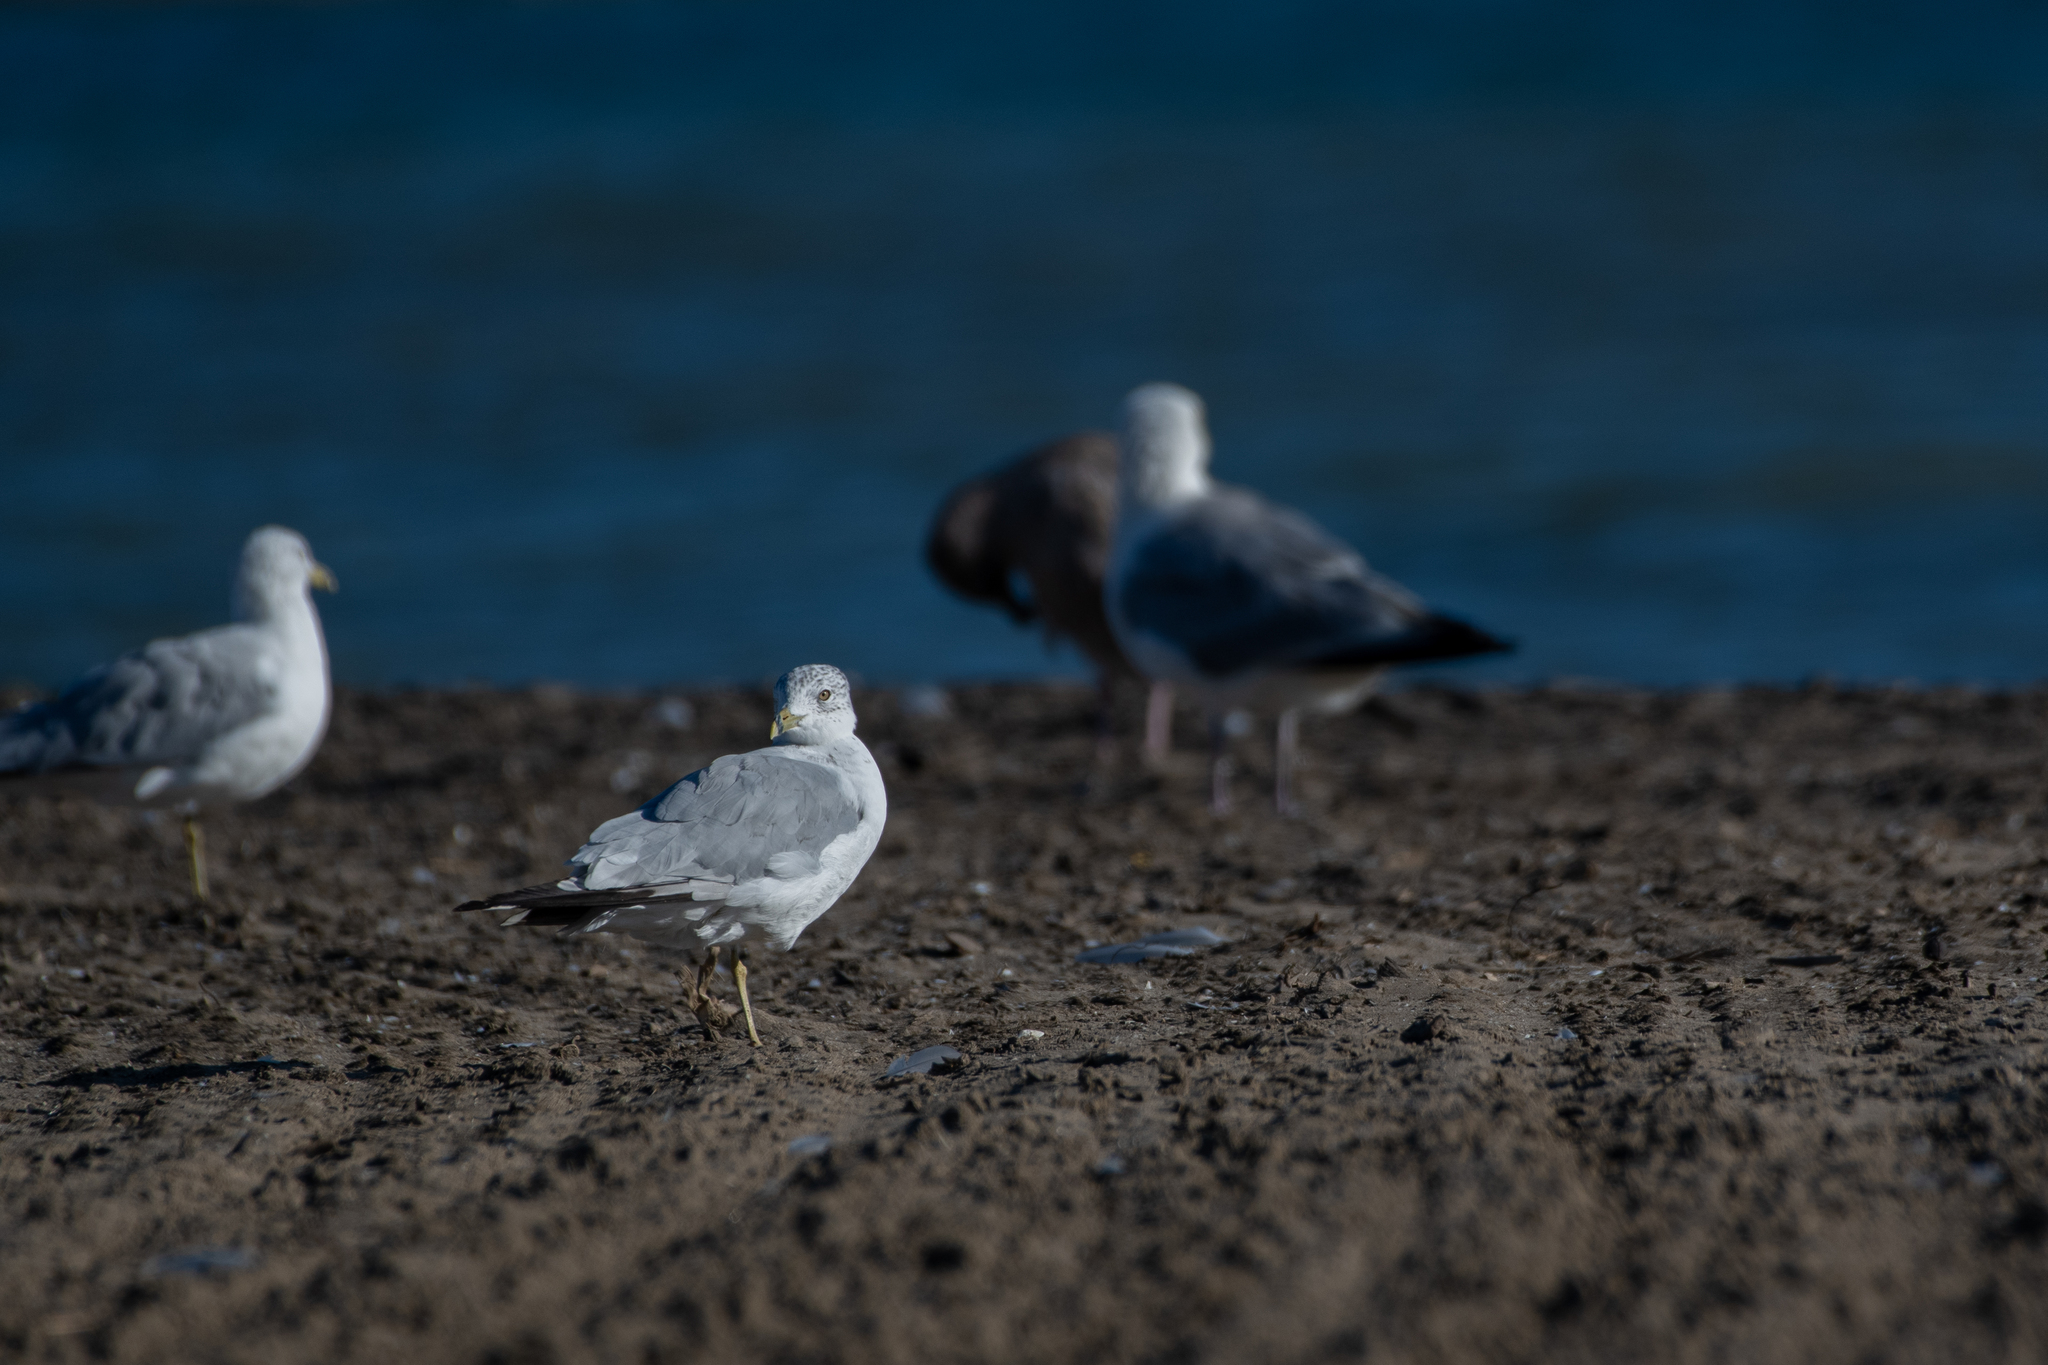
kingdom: Animalia
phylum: Chordata
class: Aves
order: Charadriiformes
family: Laridae
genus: Larus
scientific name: Larus delawarensis
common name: Ring-billed gull
